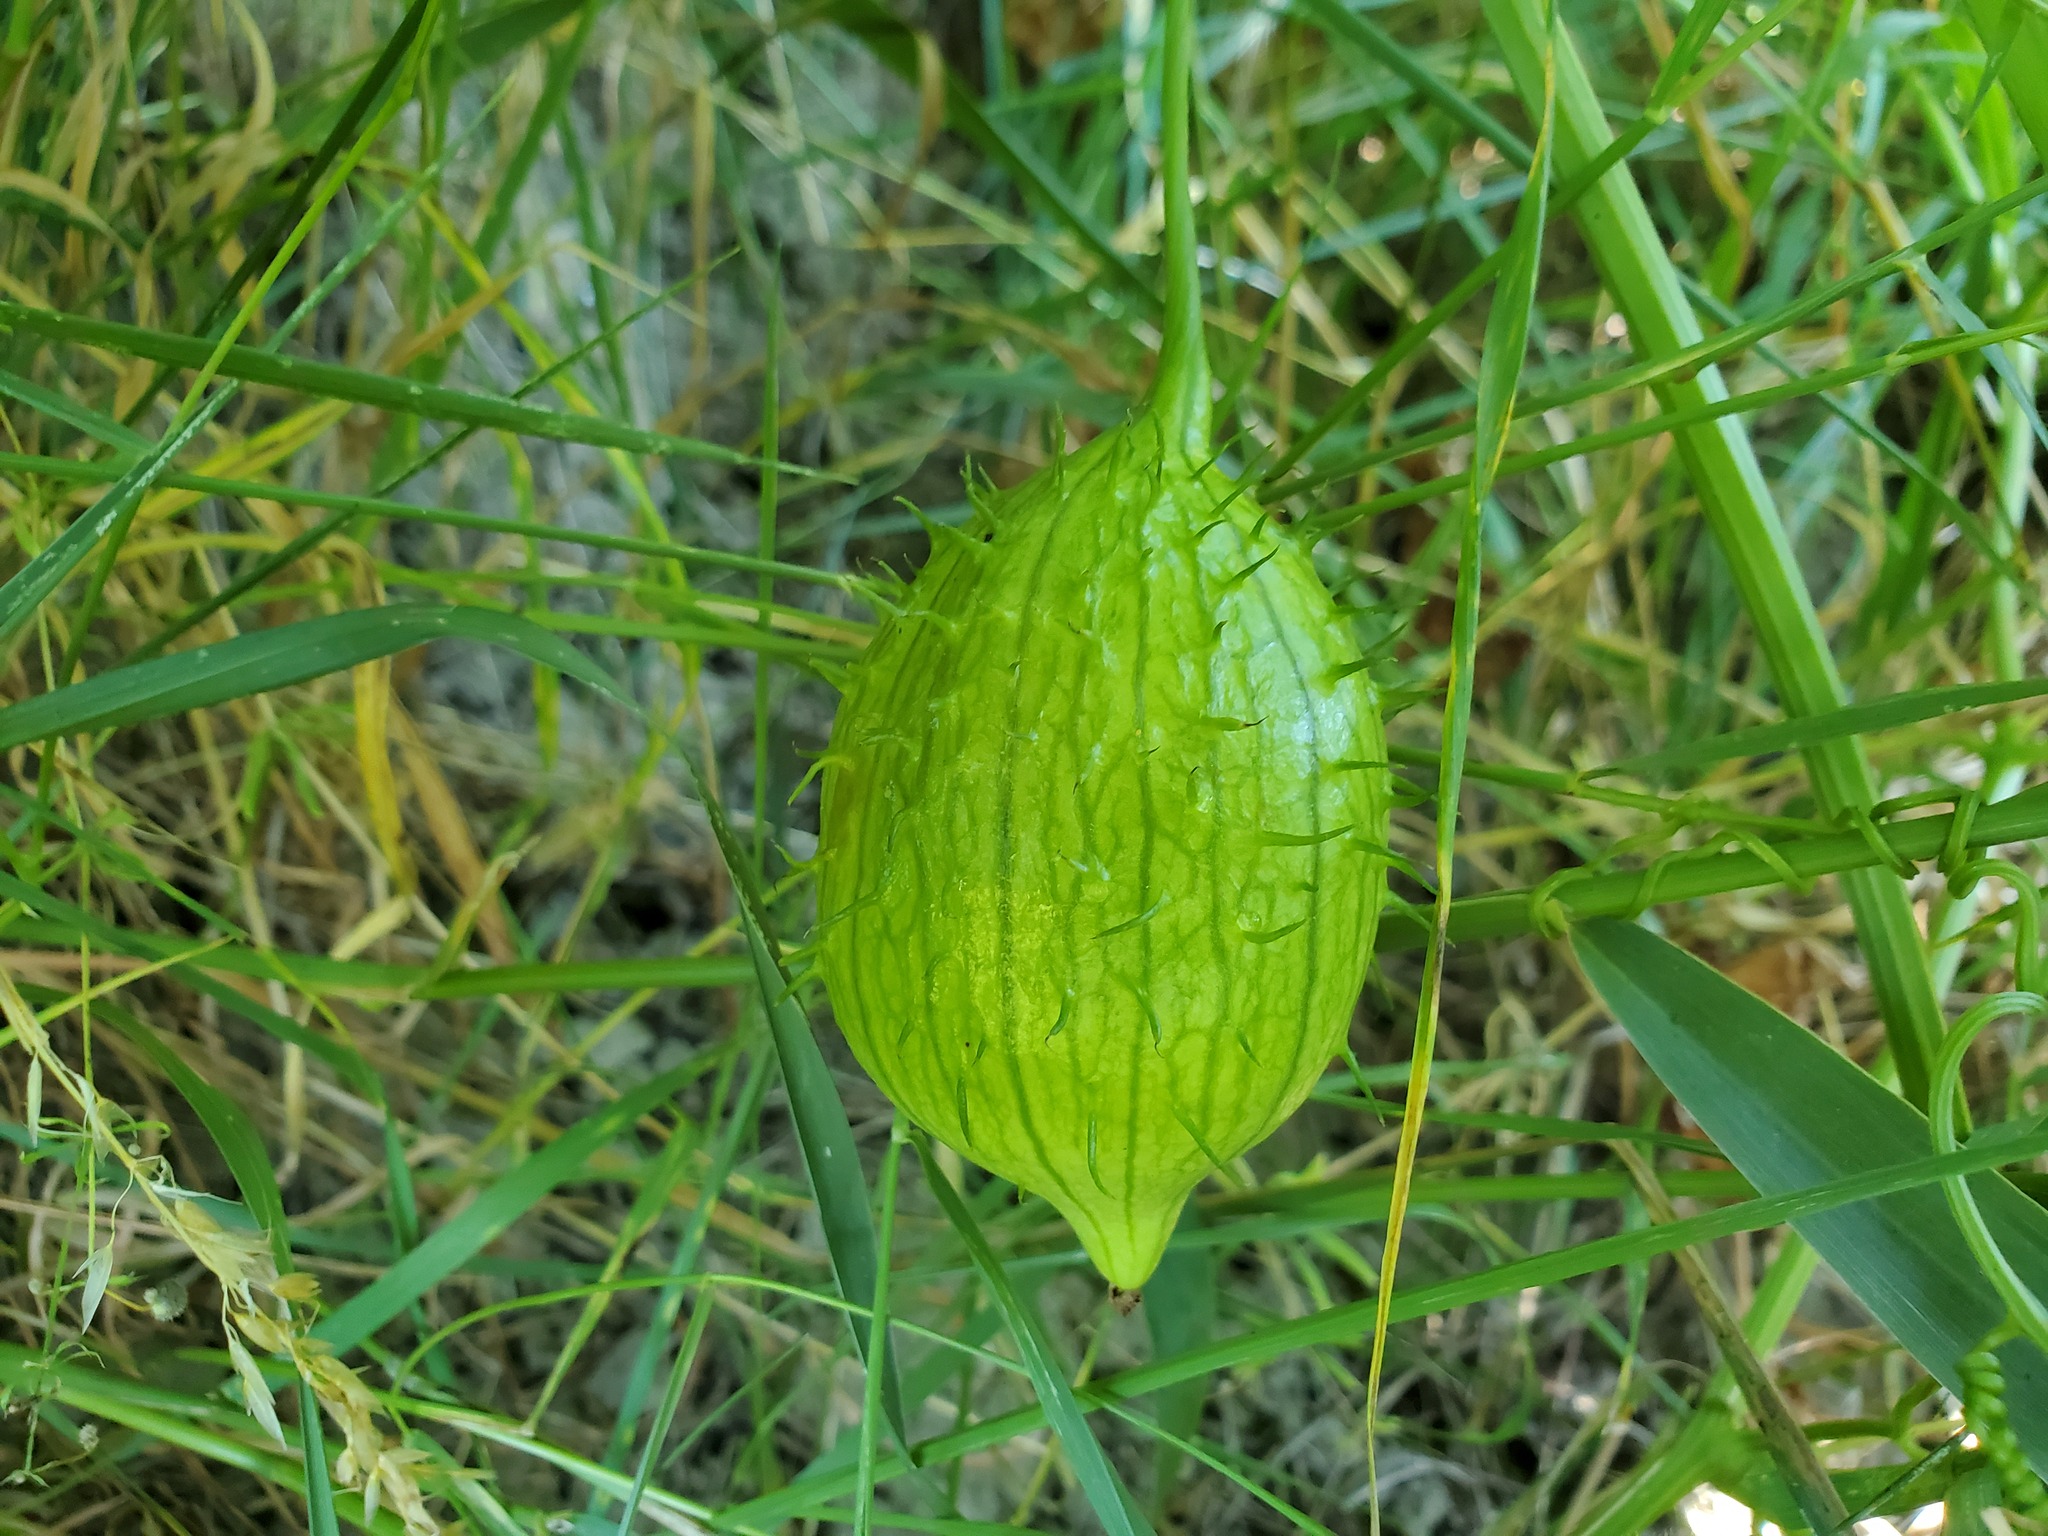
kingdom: Plantae
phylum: Tracheophyta
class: Magnoliopsida
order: Cucurbitales
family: Cucurbitaceae
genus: Marah
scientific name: Marah oregana
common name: Coastal manroot
